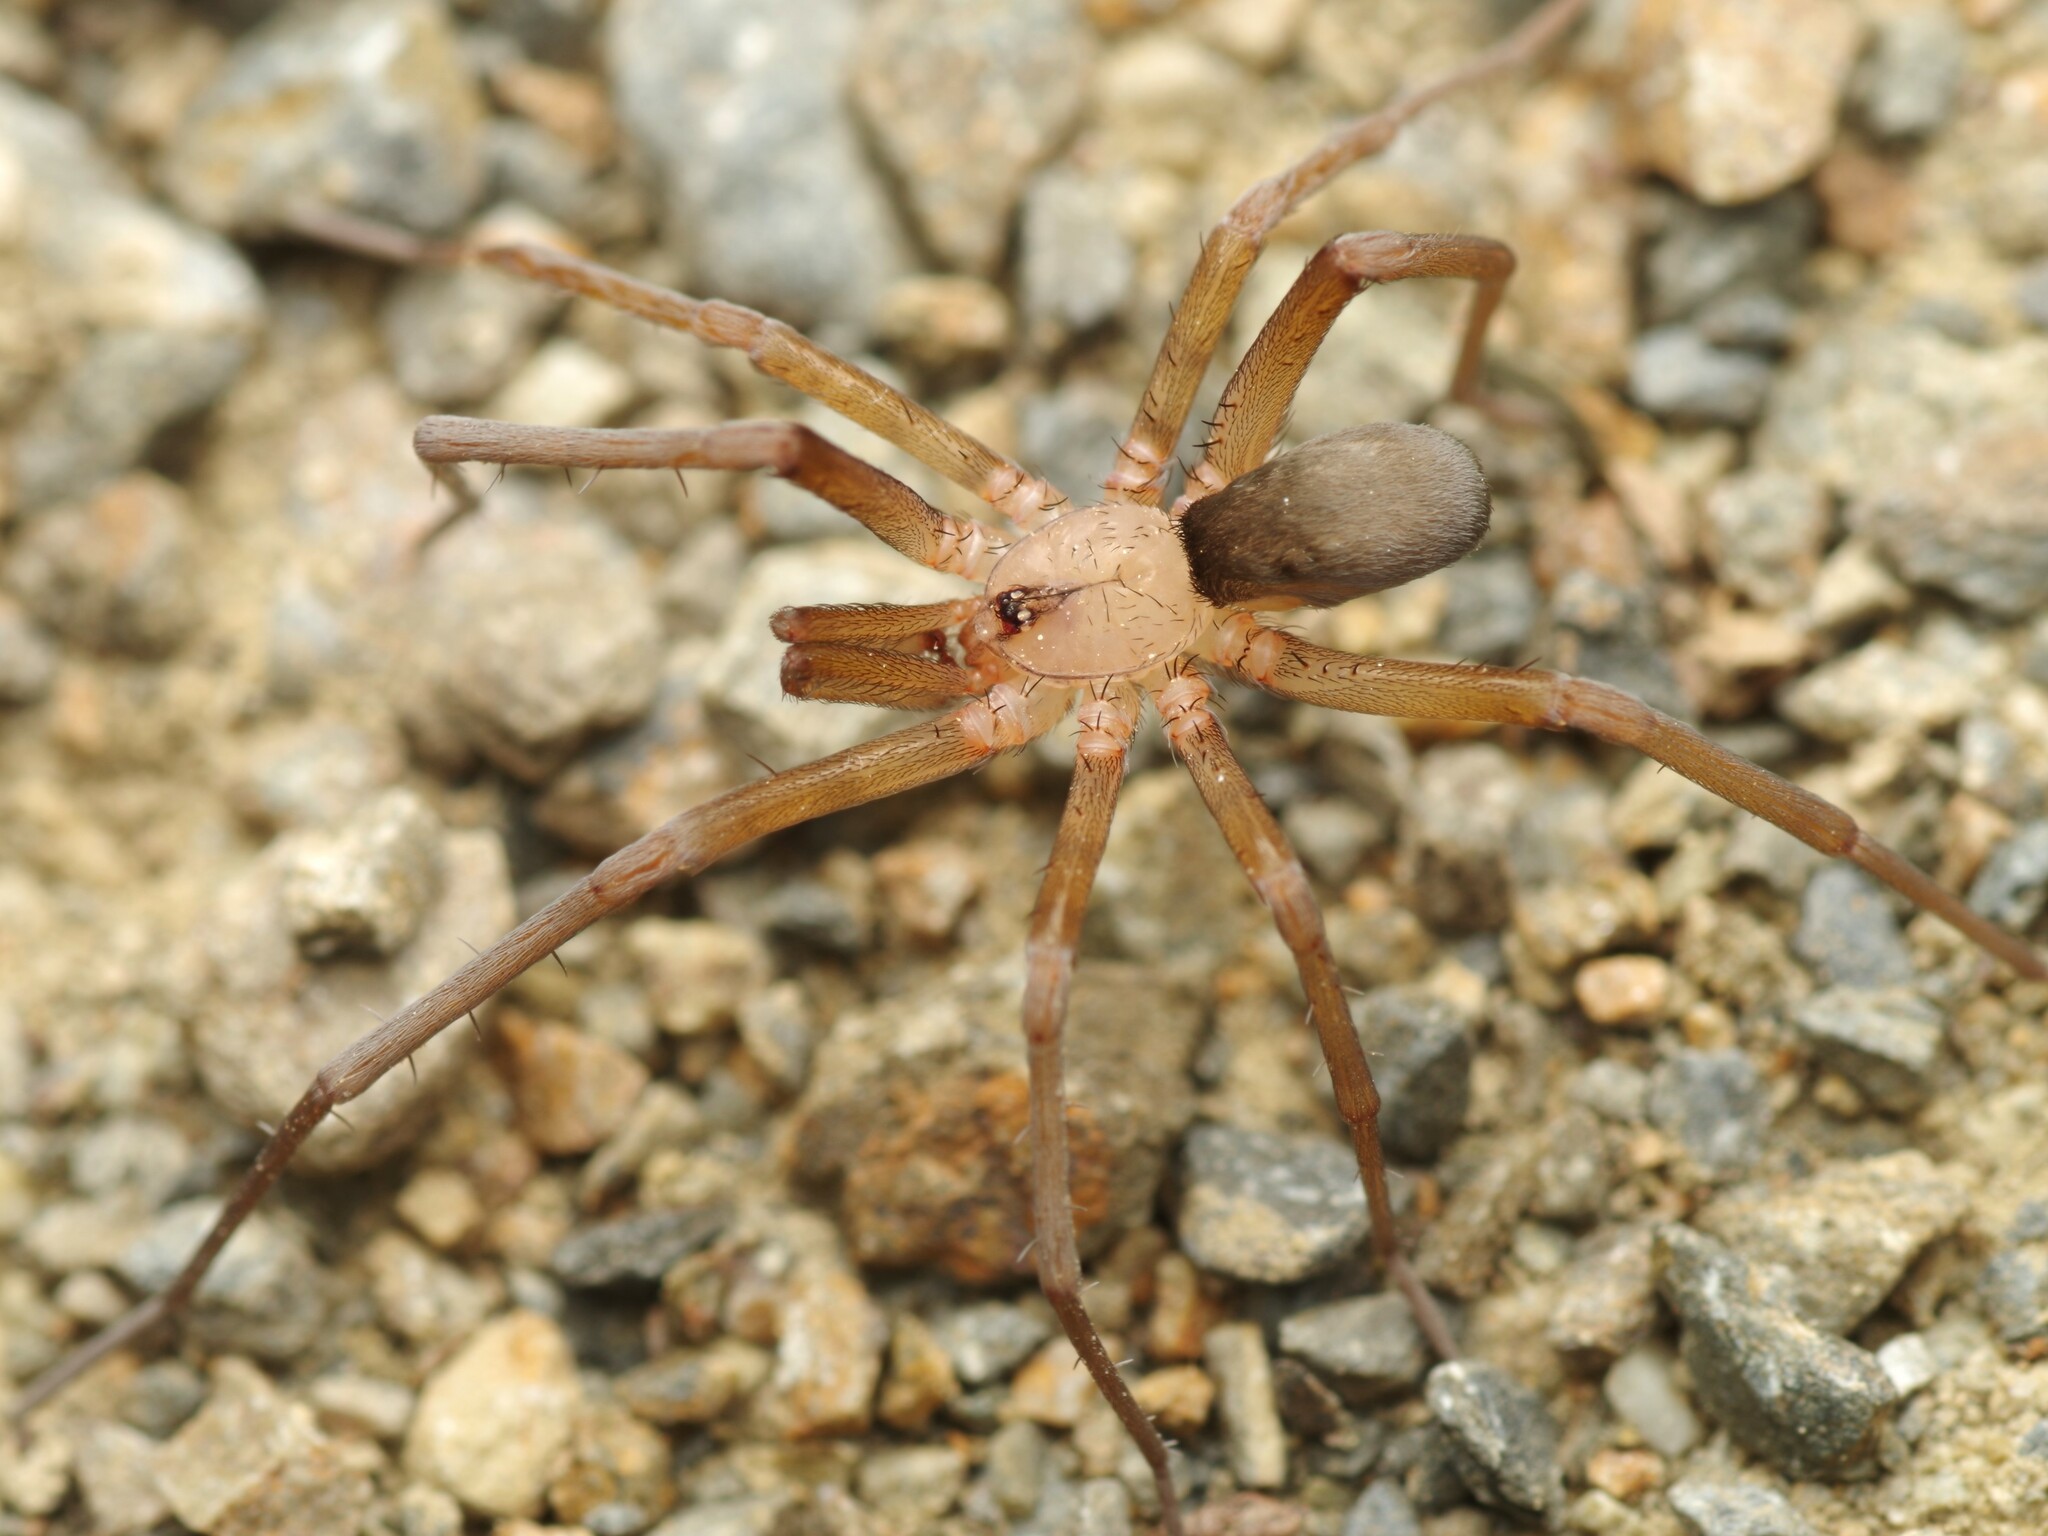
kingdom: Animalia
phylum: Arthropoda
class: Arachnida
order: Araneae
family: Filistatidae
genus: Filistata
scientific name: Filistata insidiatrix
